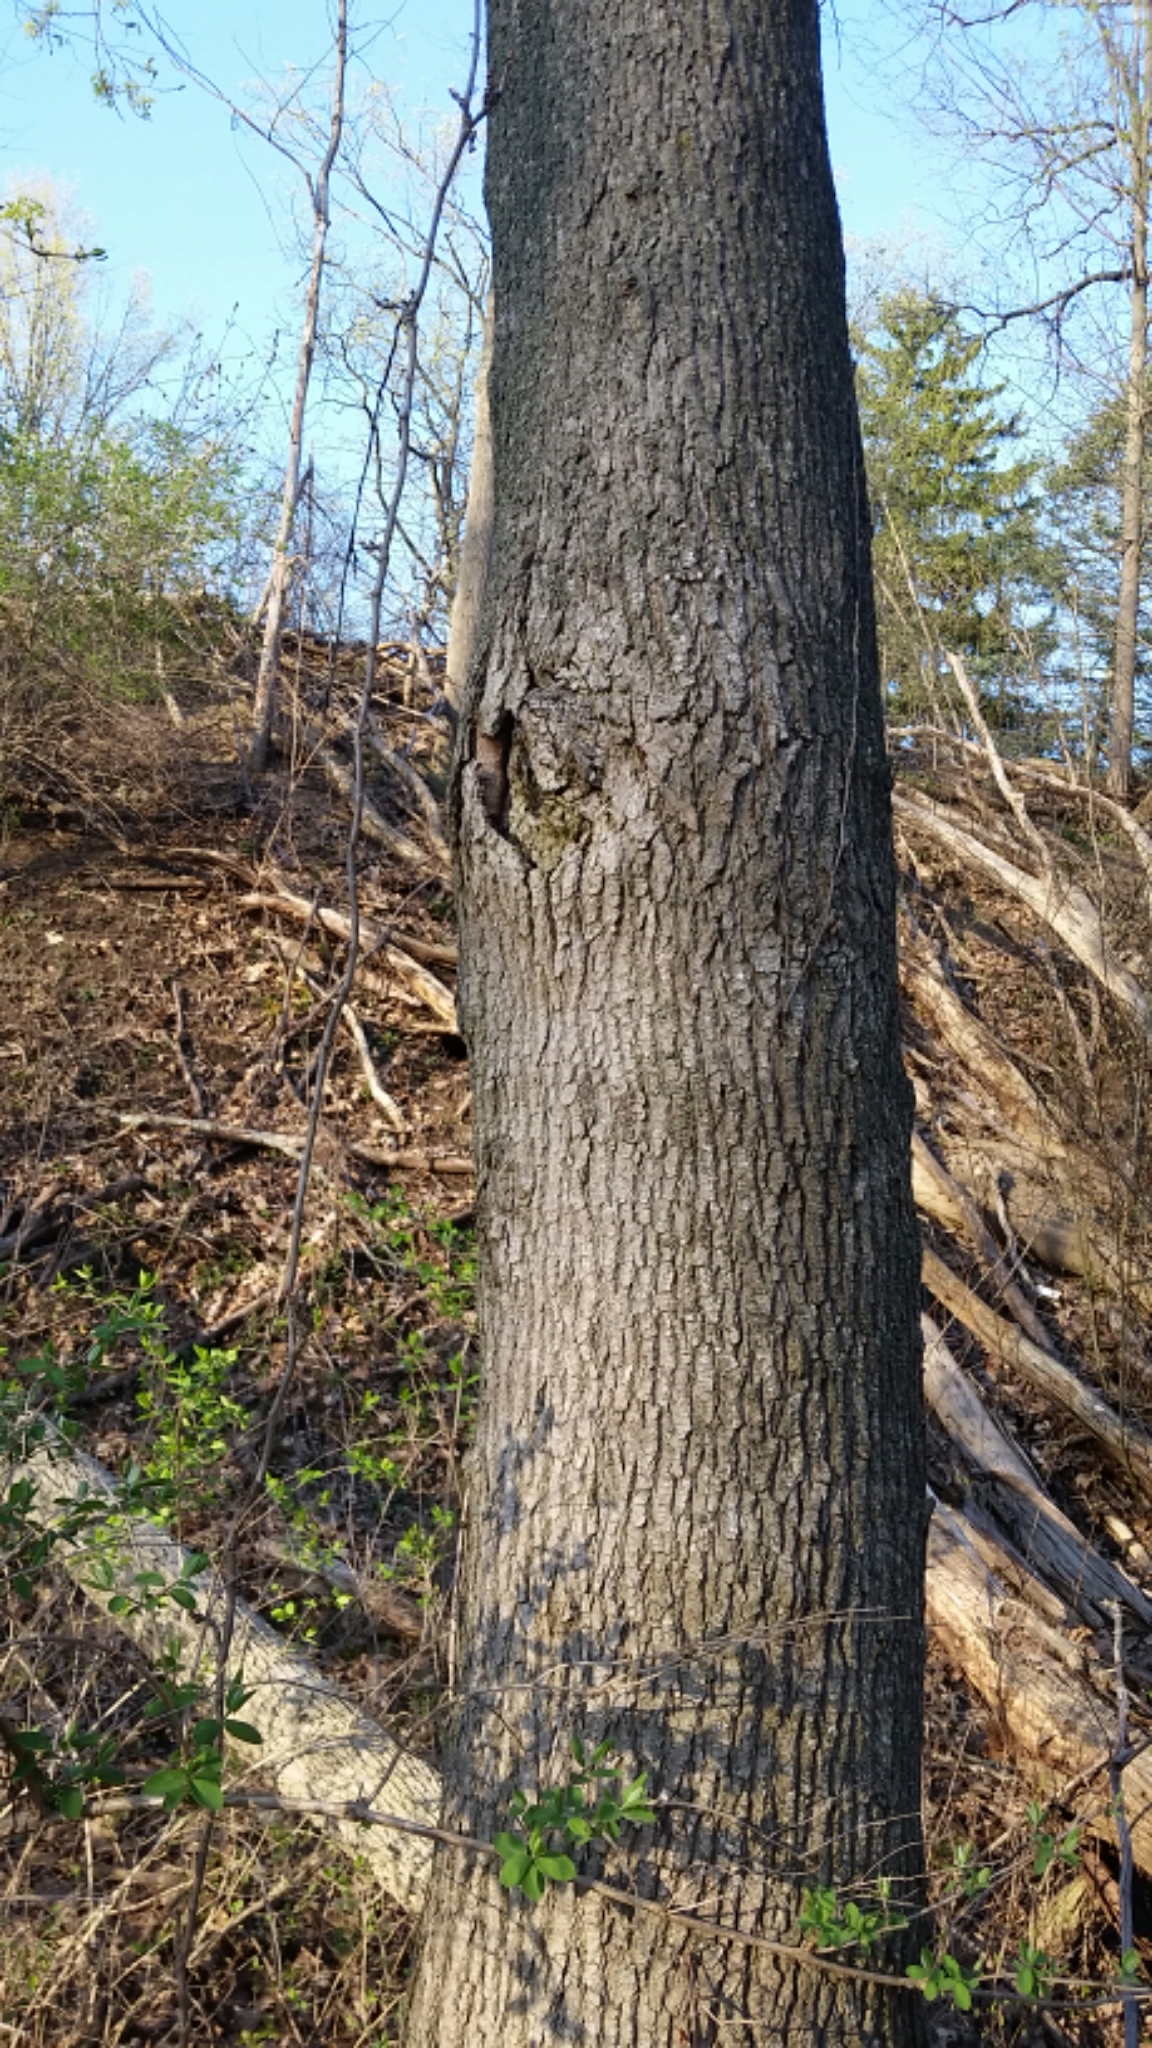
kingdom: Plantae
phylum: Tracheophyta
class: Magnoliopsida
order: Sapindales
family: Sapindaceae
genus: Acer
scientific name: Acer platanoides
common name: Norway maple
